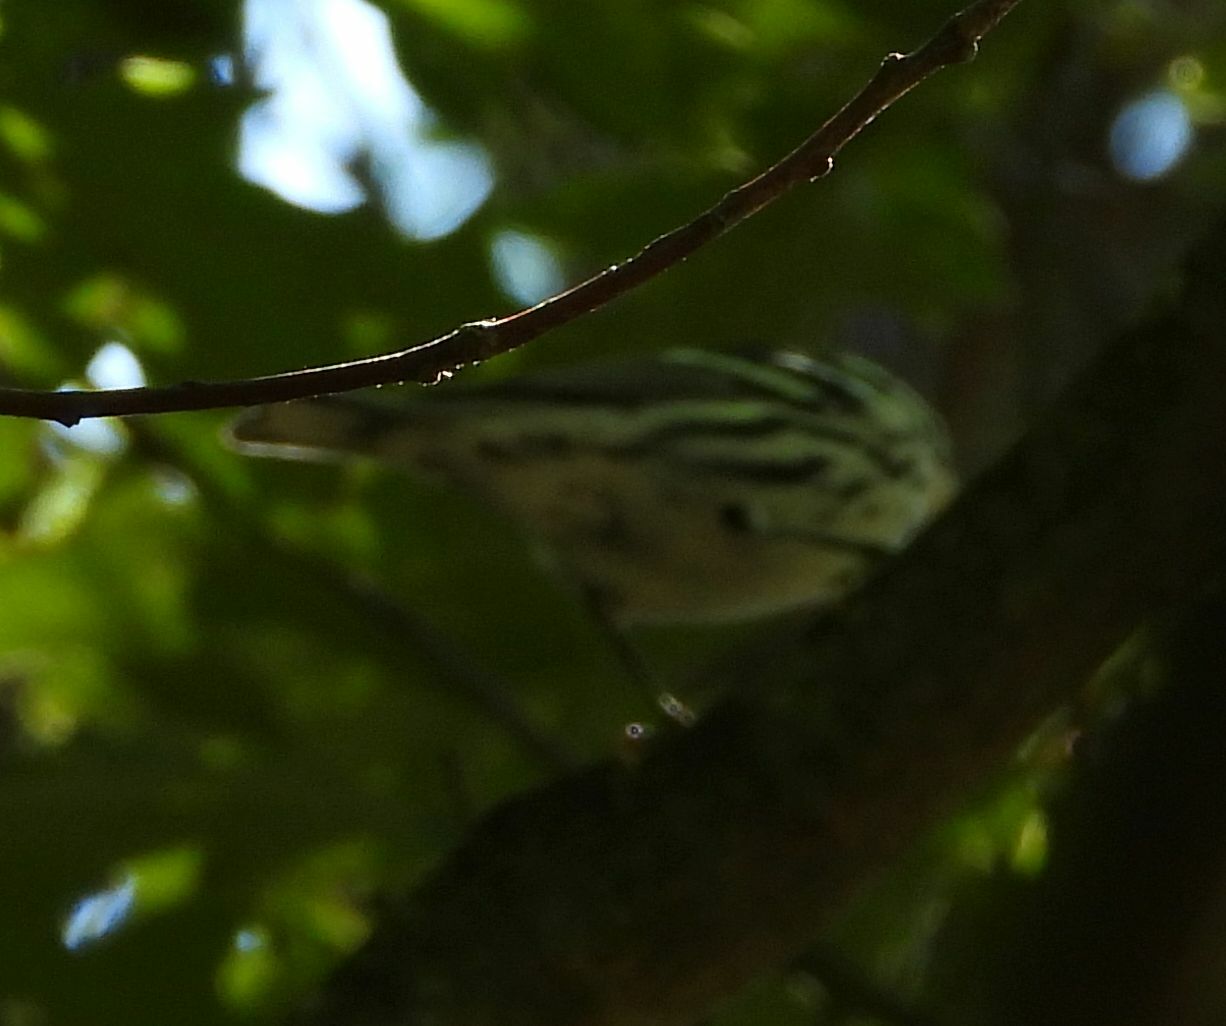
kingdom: Animalia
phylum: Chordata
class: Aves
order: Passeriformes
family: Parulidae
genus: Mniotilta
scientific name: Mniotilta varia
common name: Black-and-white warbler
